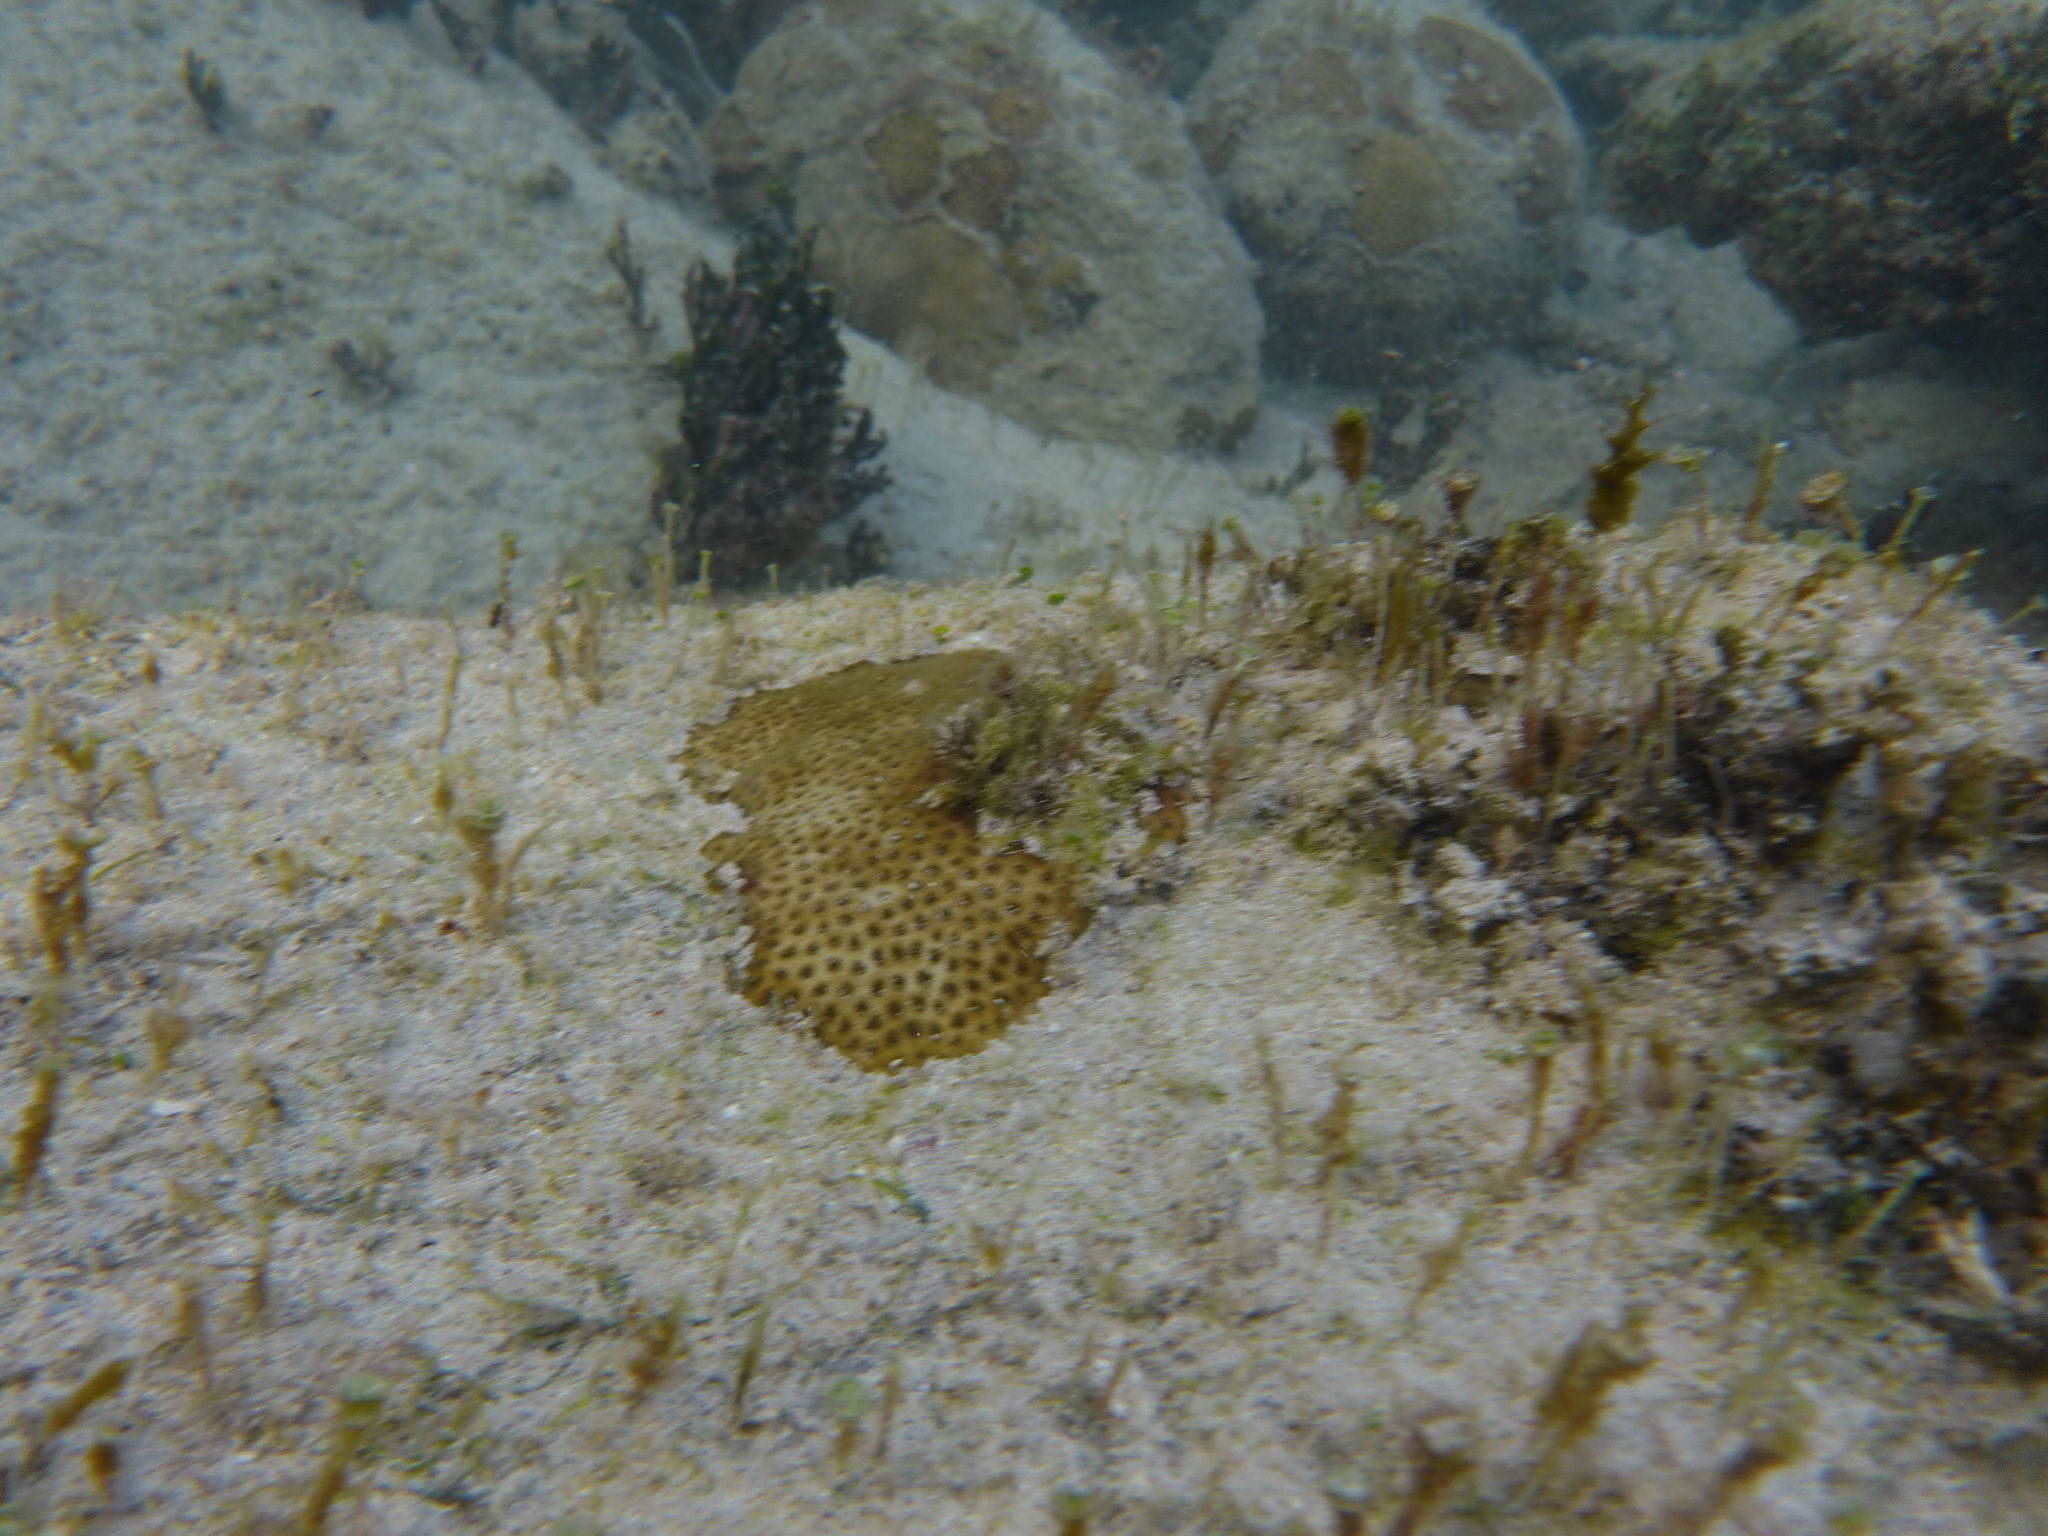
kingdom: Animalia
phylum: Cnidaria
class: Anthozoa
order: Scleractinia
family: Rhizangiidae
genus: Siderastrea
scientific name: Siderastrea radians
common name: Lesser starlet coral
